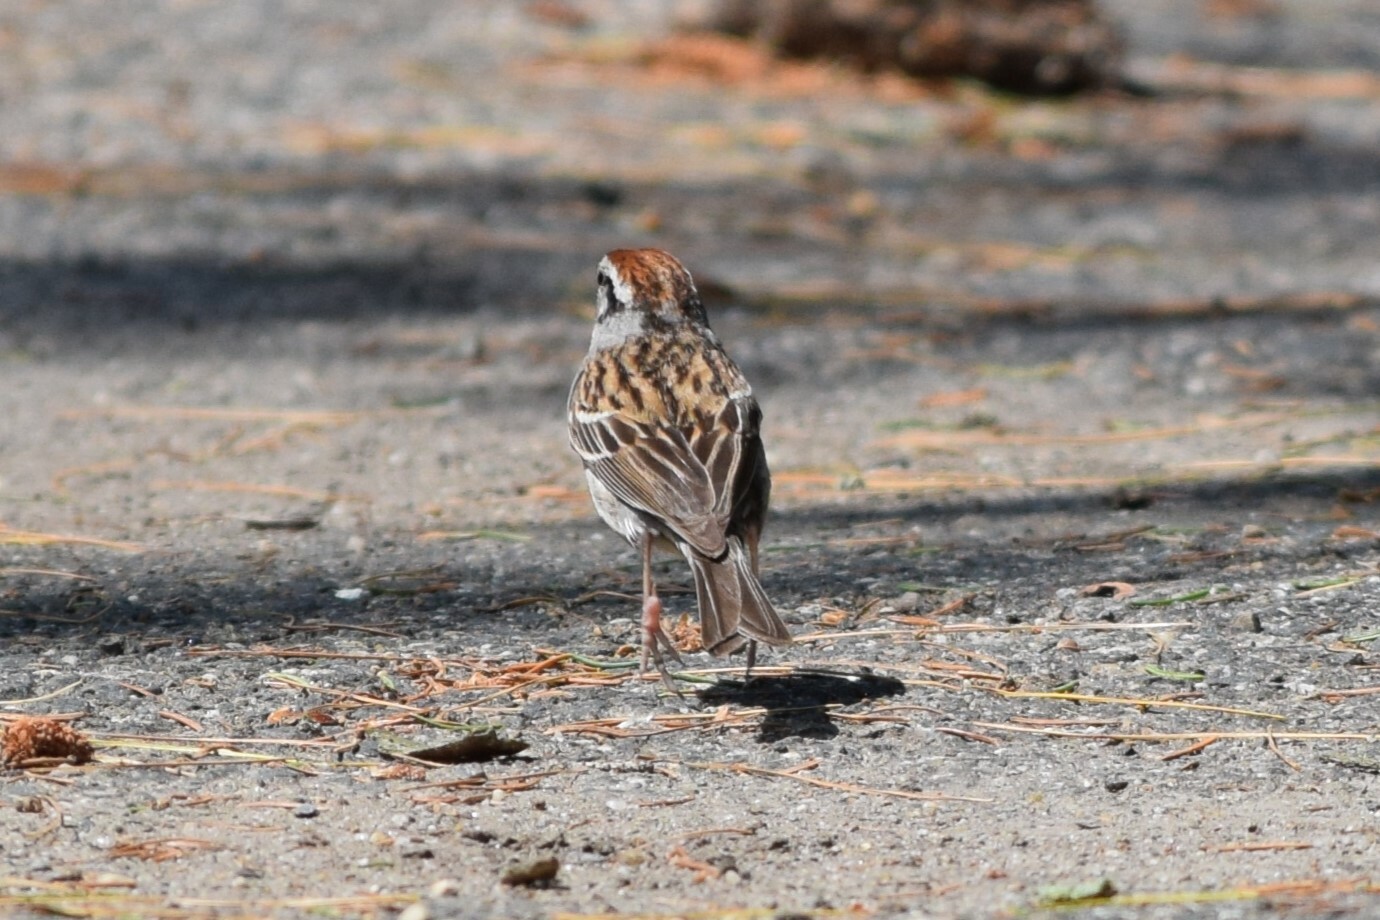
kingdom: Animalia
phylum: Chordata
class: Aves
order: Passeriformes
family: Passerellidae
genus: Spizella
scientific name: Spizella passerina
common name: Chipping sparrow
